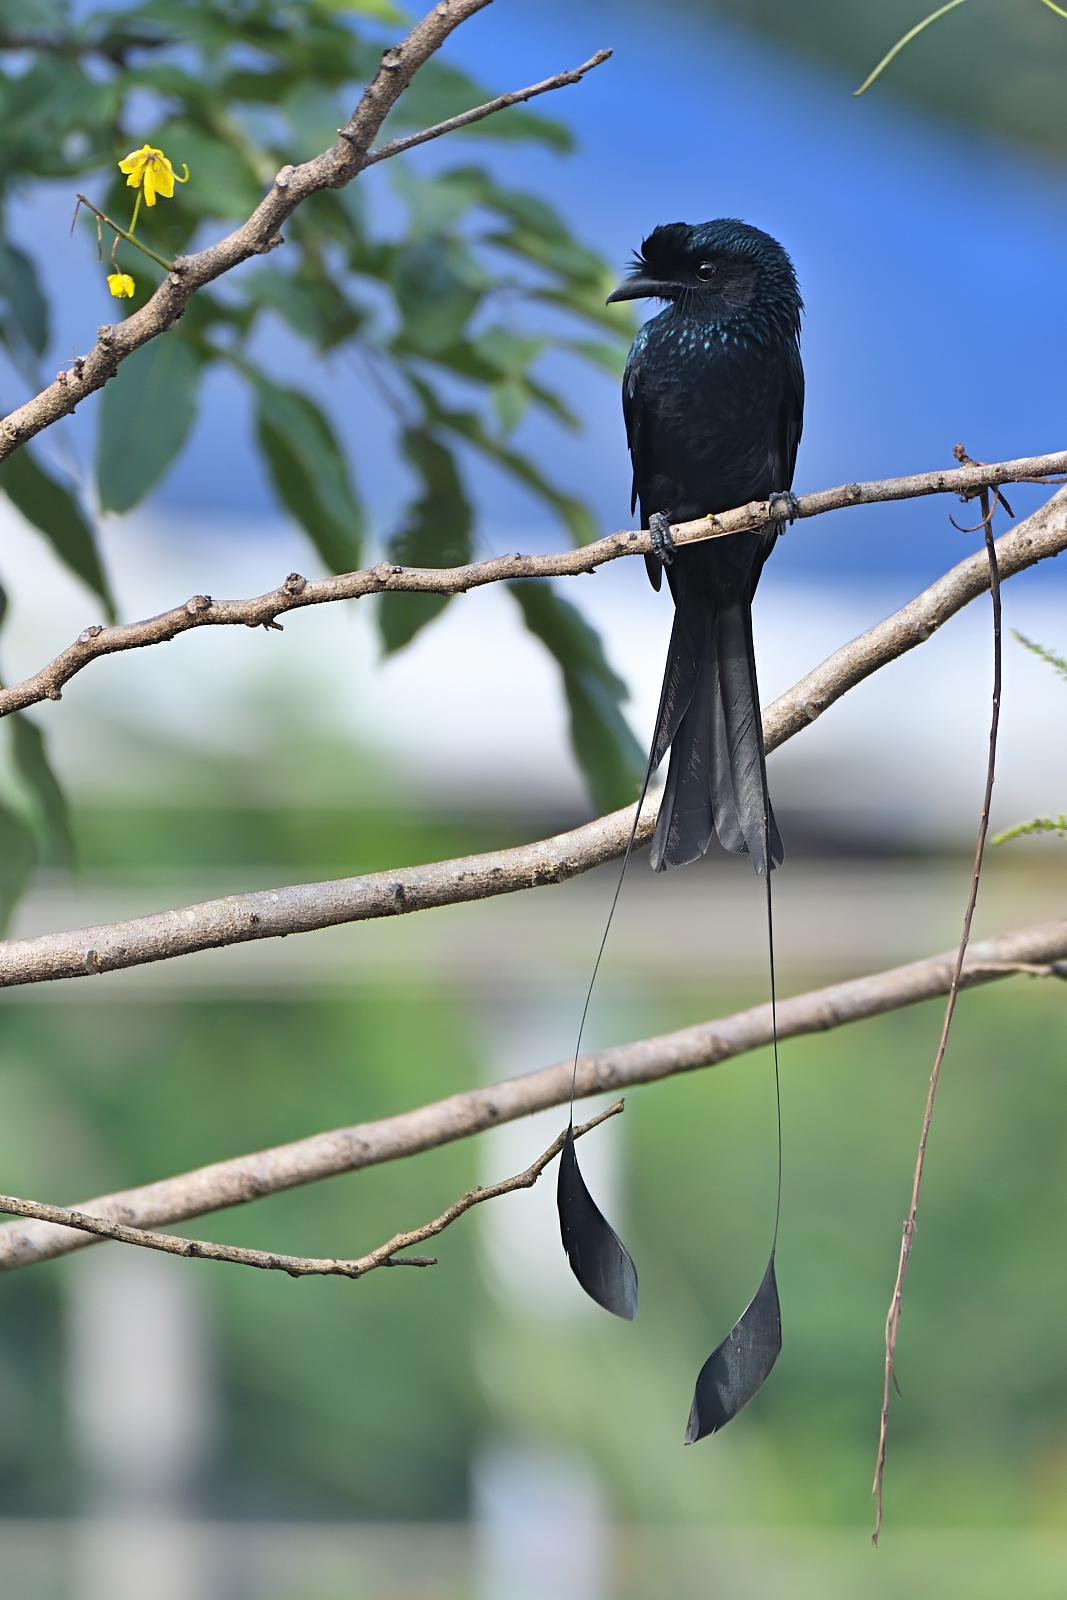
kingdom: Animalia
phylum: Chordata
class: Aves
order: Passeriformes
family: Dicruridae
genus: Dicrurus
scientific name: Dicrurus paradiseus
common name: Greater racket-tailed drongo
